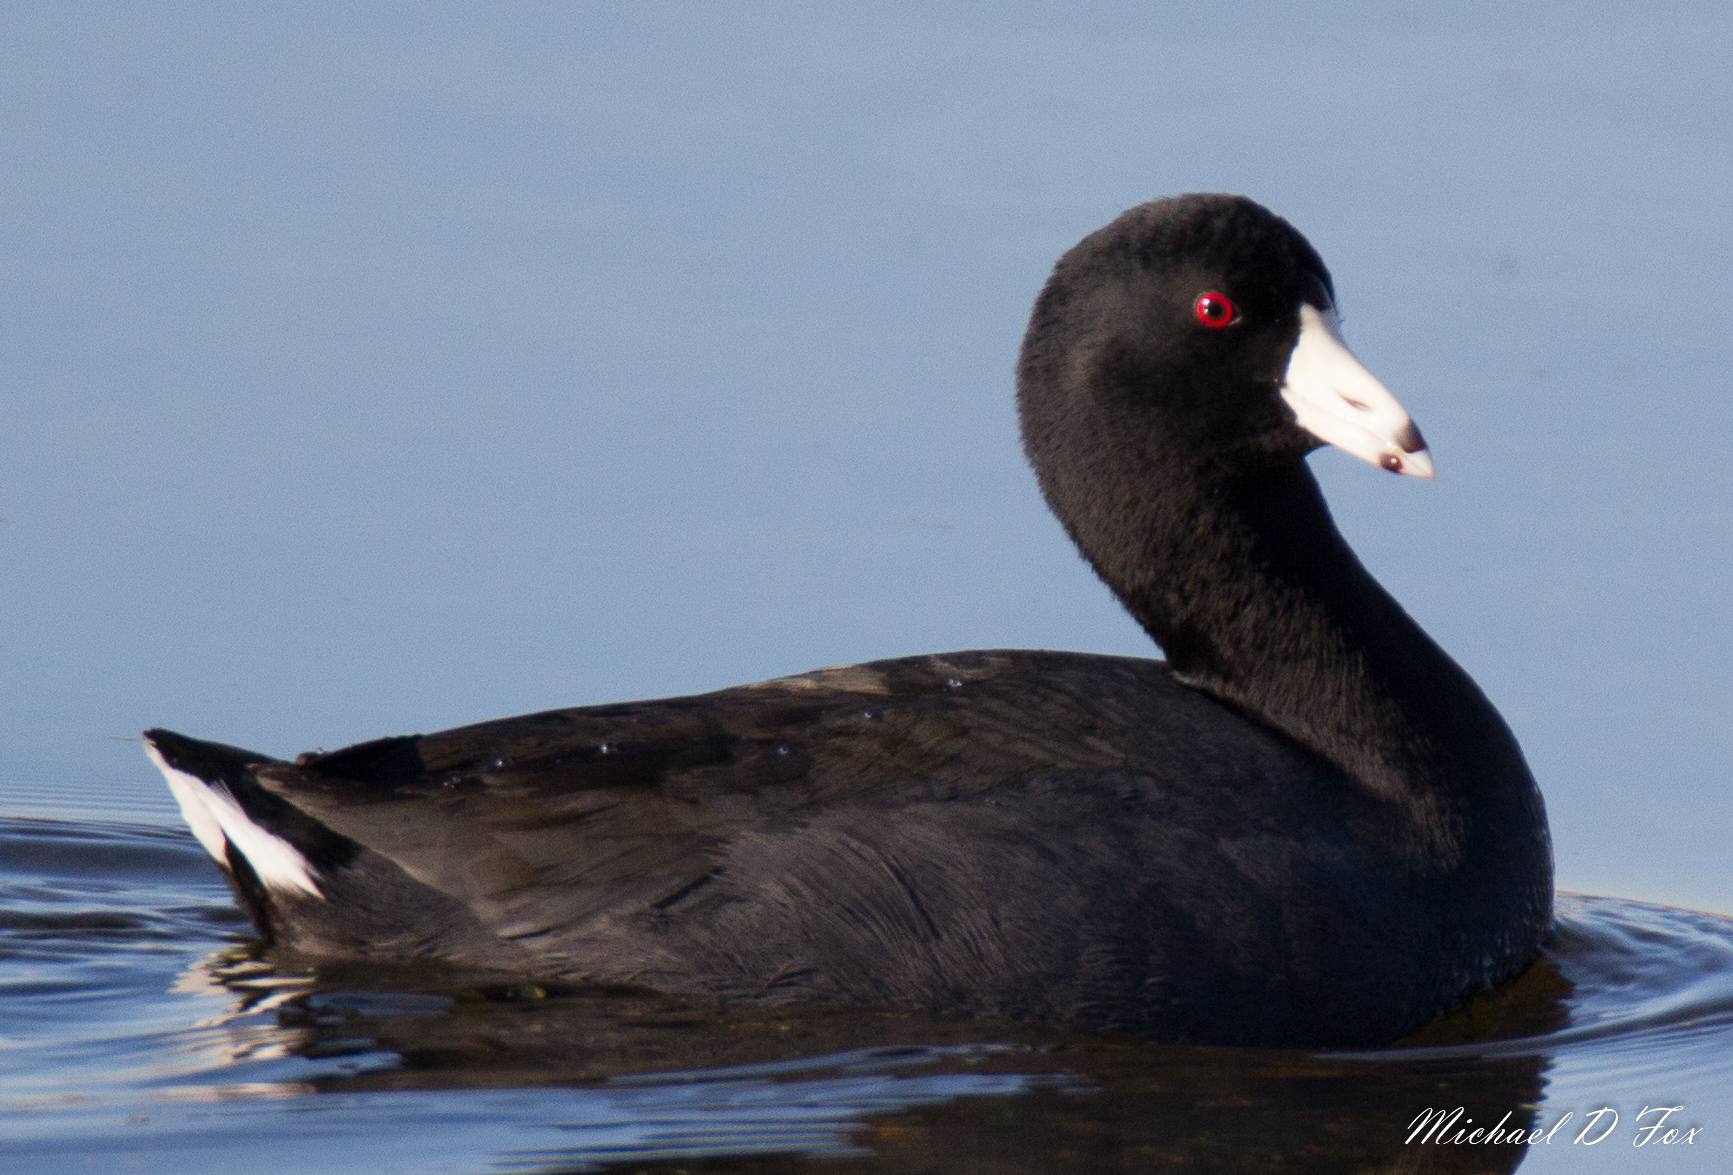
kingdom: Animalia
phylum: Chordata
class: Aves
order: Gruiformes
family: Rallidae
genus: Fulica
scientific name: Fulica americana
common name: American coot
